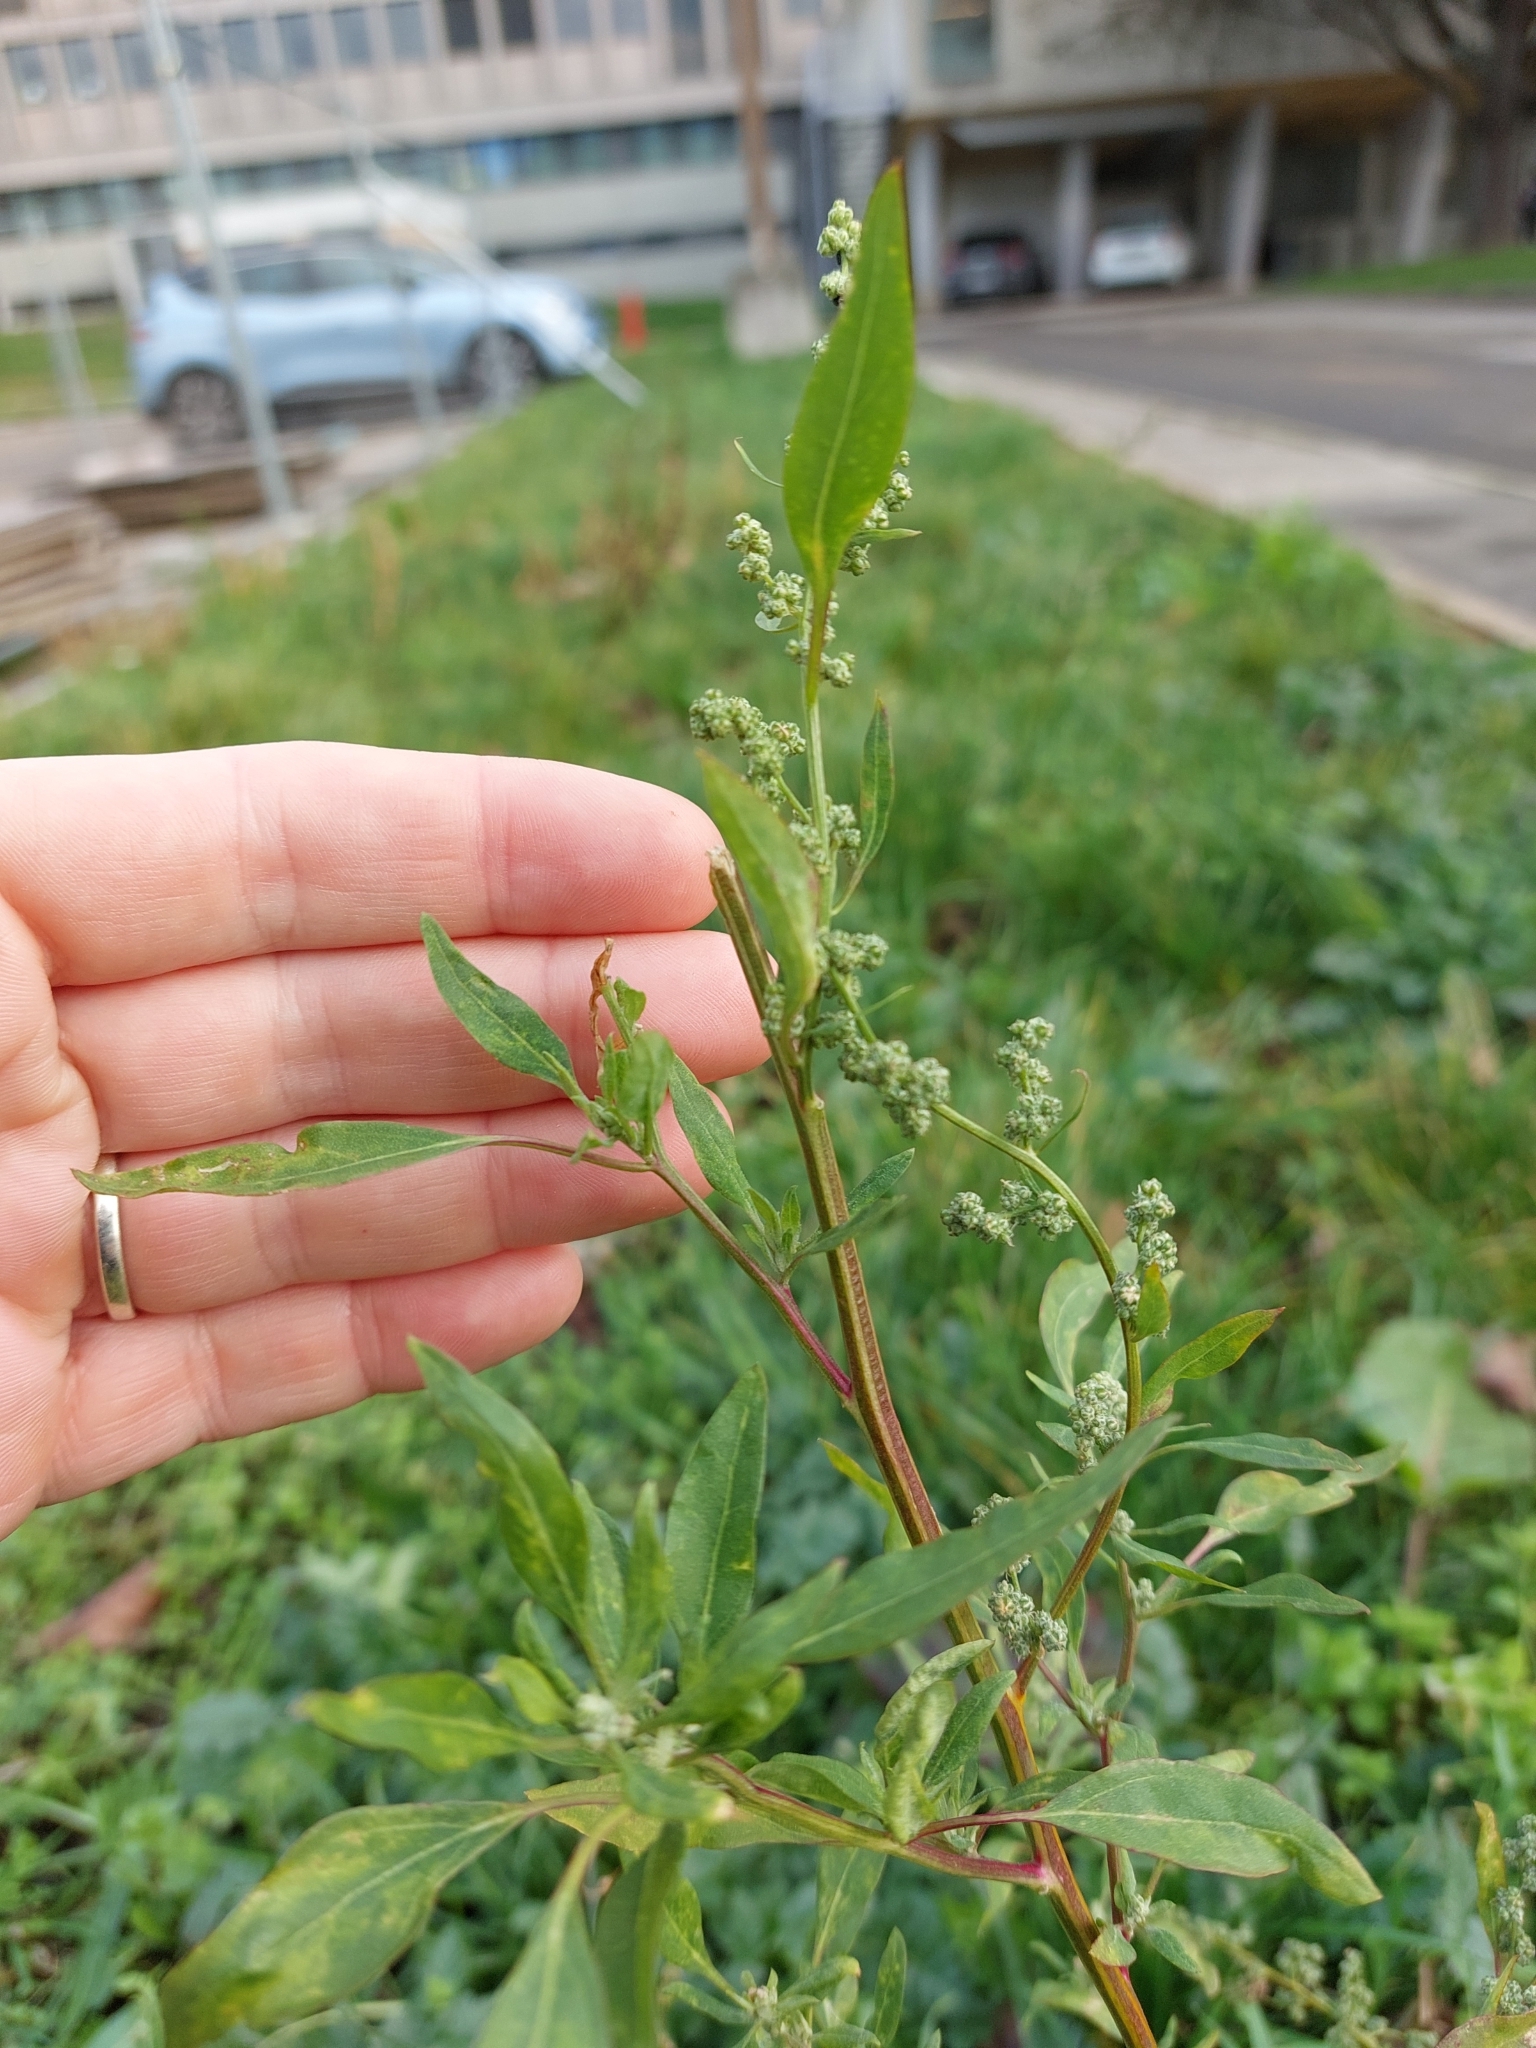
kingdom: Plantae
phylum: Tracheophyta
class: Magnoliopsida
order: Caryophyllales
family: Amaranthaceae
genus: Chenopodium
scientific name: Chenopodium album
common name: Fat-hen
